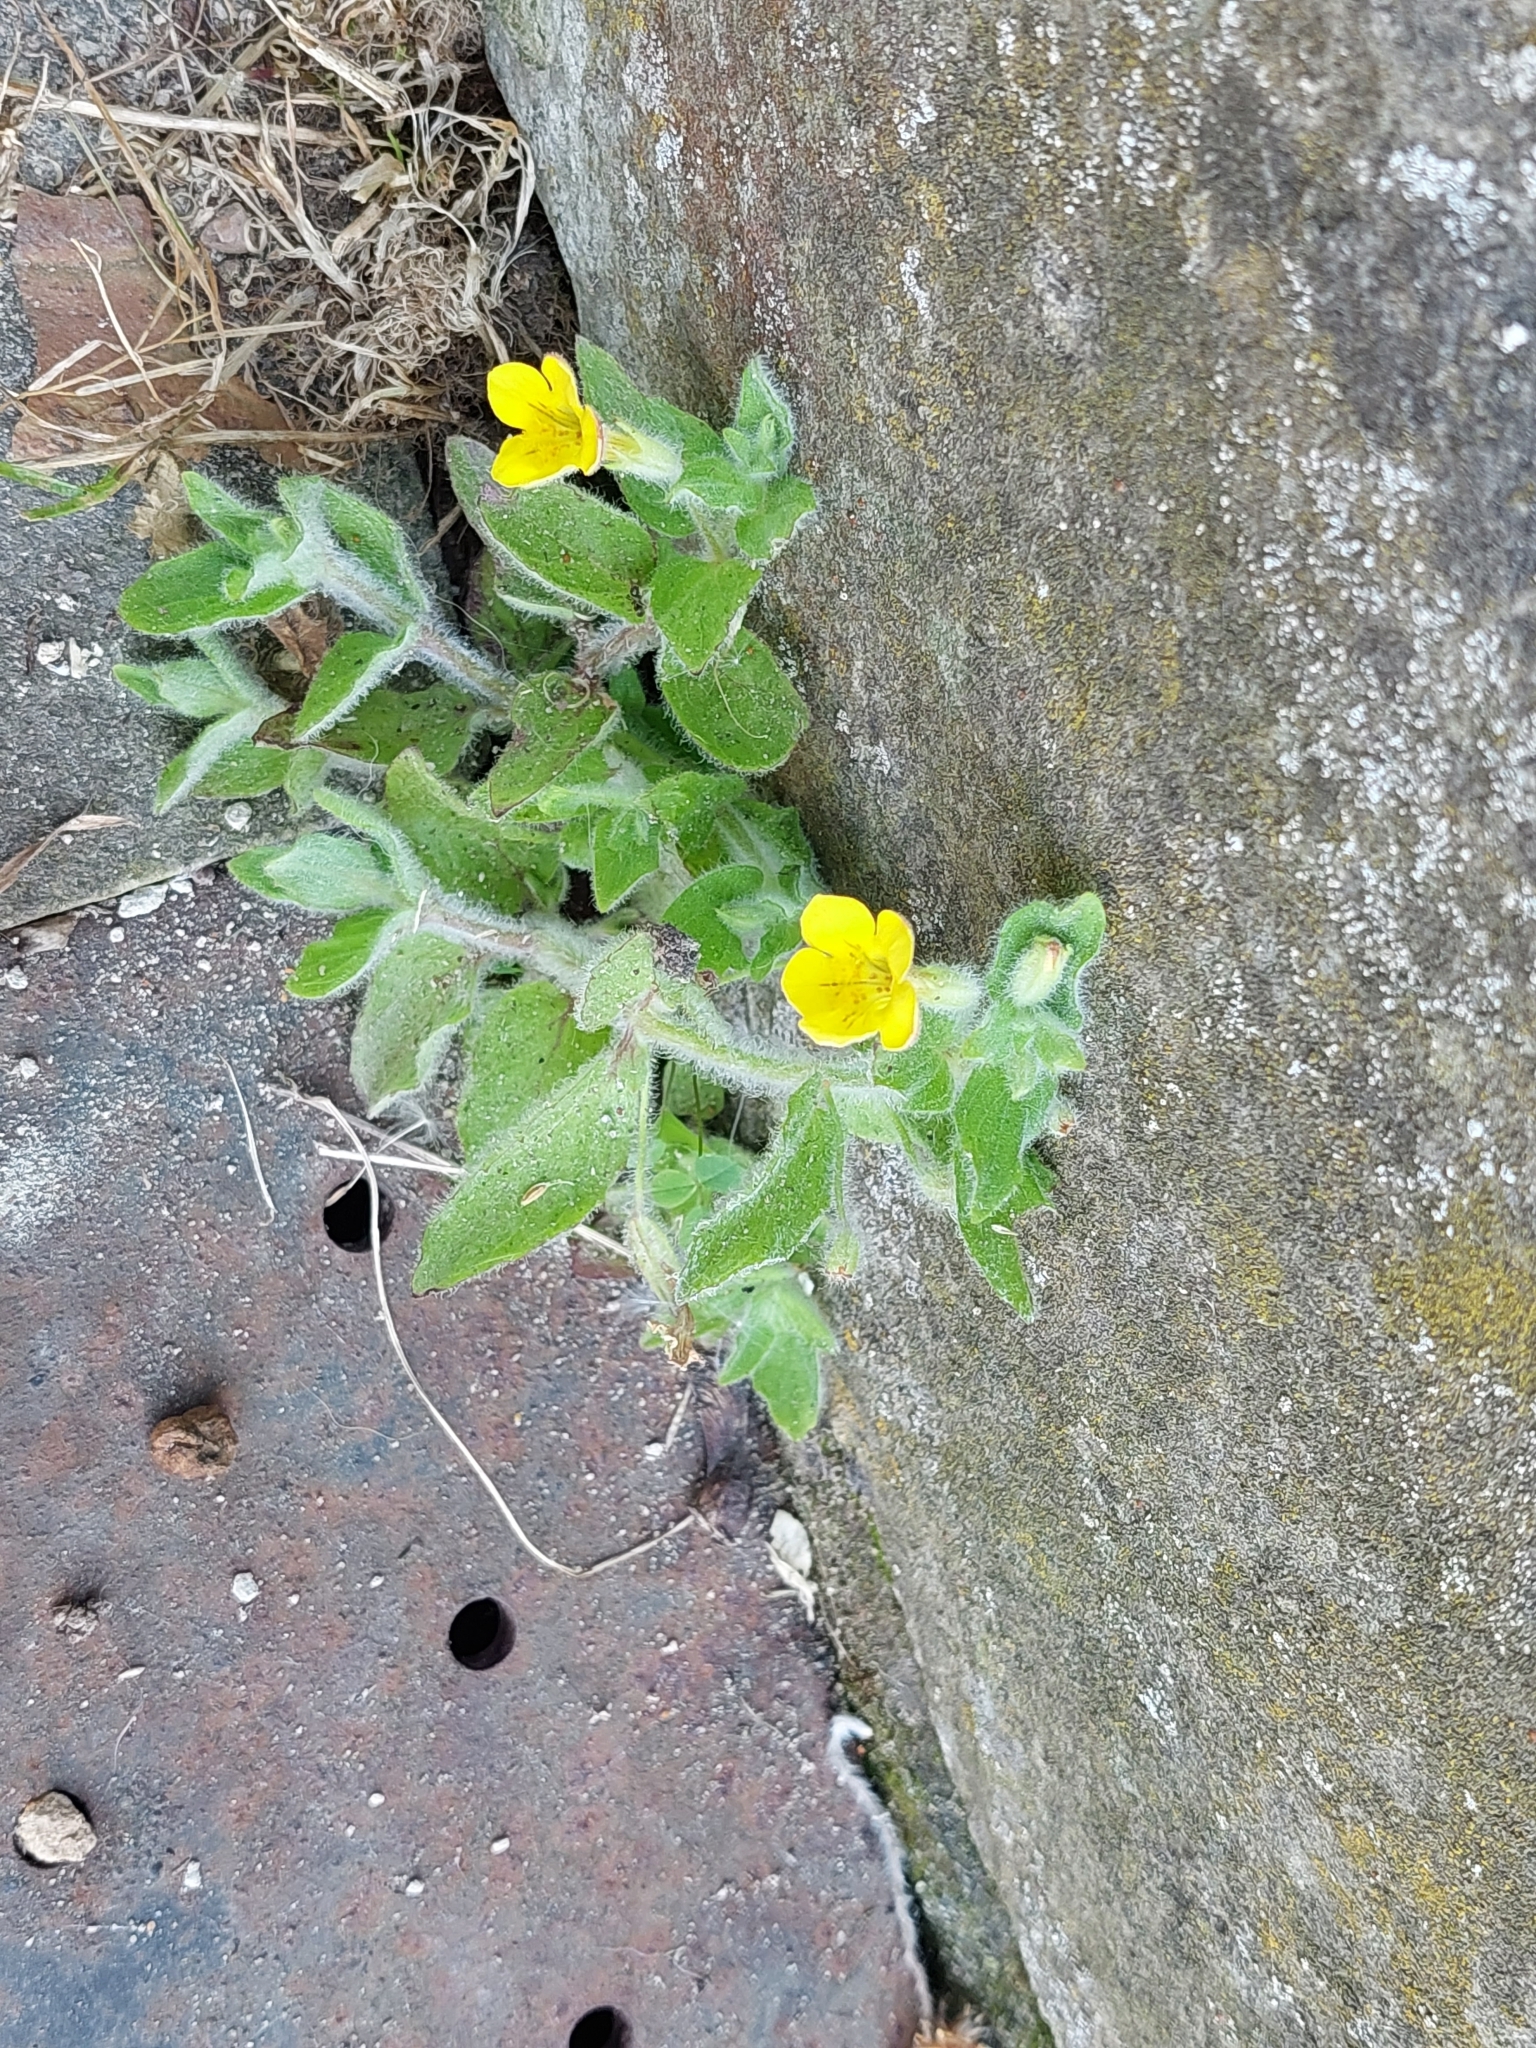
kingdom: Plantae
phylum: Tracheophyta
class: Magnoliopsida
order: Lamiales
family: Phrymaceae
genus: Erythranthe
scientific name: Erythranthe moschata
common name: Muskflower
